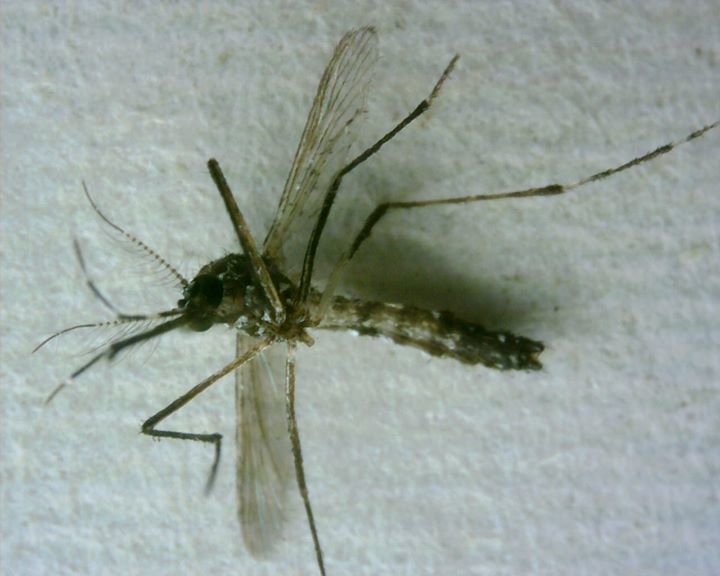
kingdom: Animalia
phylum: Arthropoda
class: Insecta
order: Diptera
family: Culicidae
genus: Aedes
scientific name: Aedes aegypti
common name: Yellow fever mosquito
